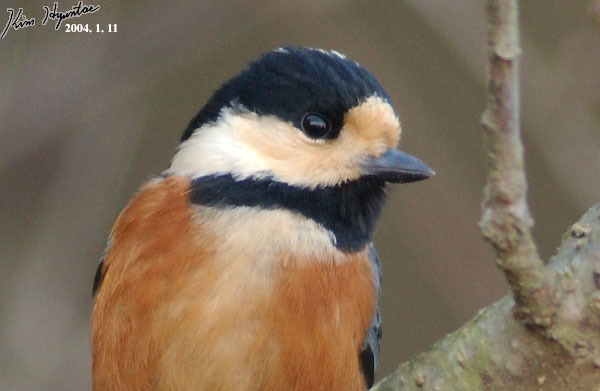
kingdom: Animalia
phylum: Chordata
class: Aves
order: Passeriformes
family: Paridae
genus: Poecile
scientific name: Poecile varius
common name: Varied tit
